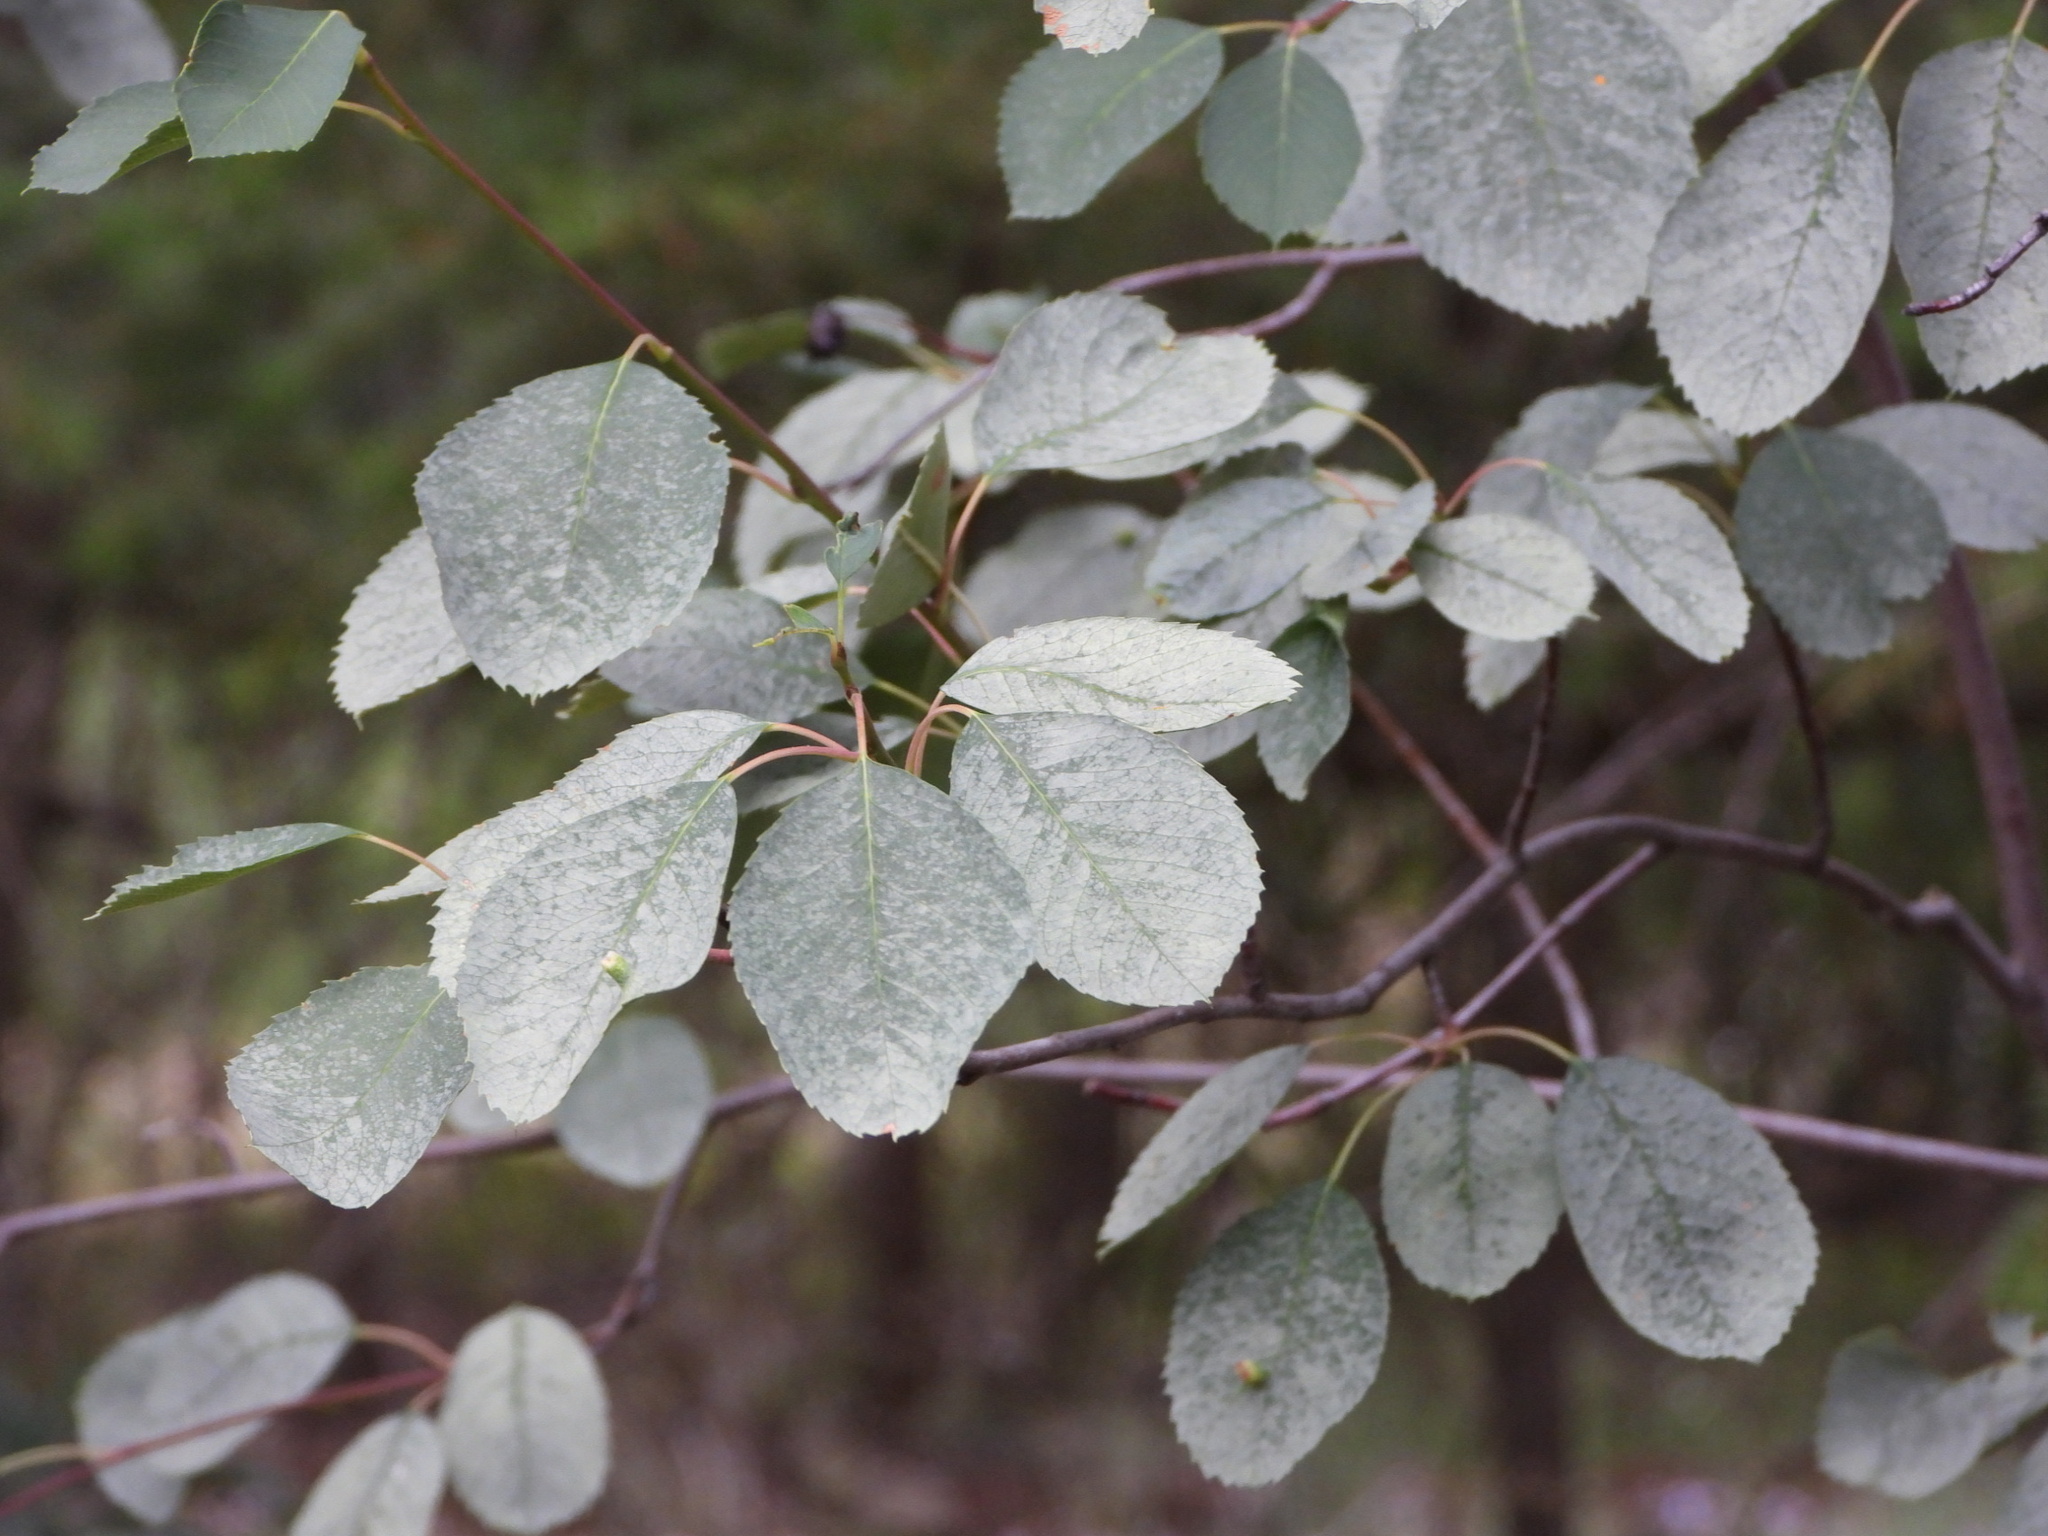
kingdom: Plantae
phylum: Tracheophyta
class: Magnoliopsida
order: Rosales
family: Rosaceae
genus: Amelanchier
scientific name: Amelanchier alnifolia
